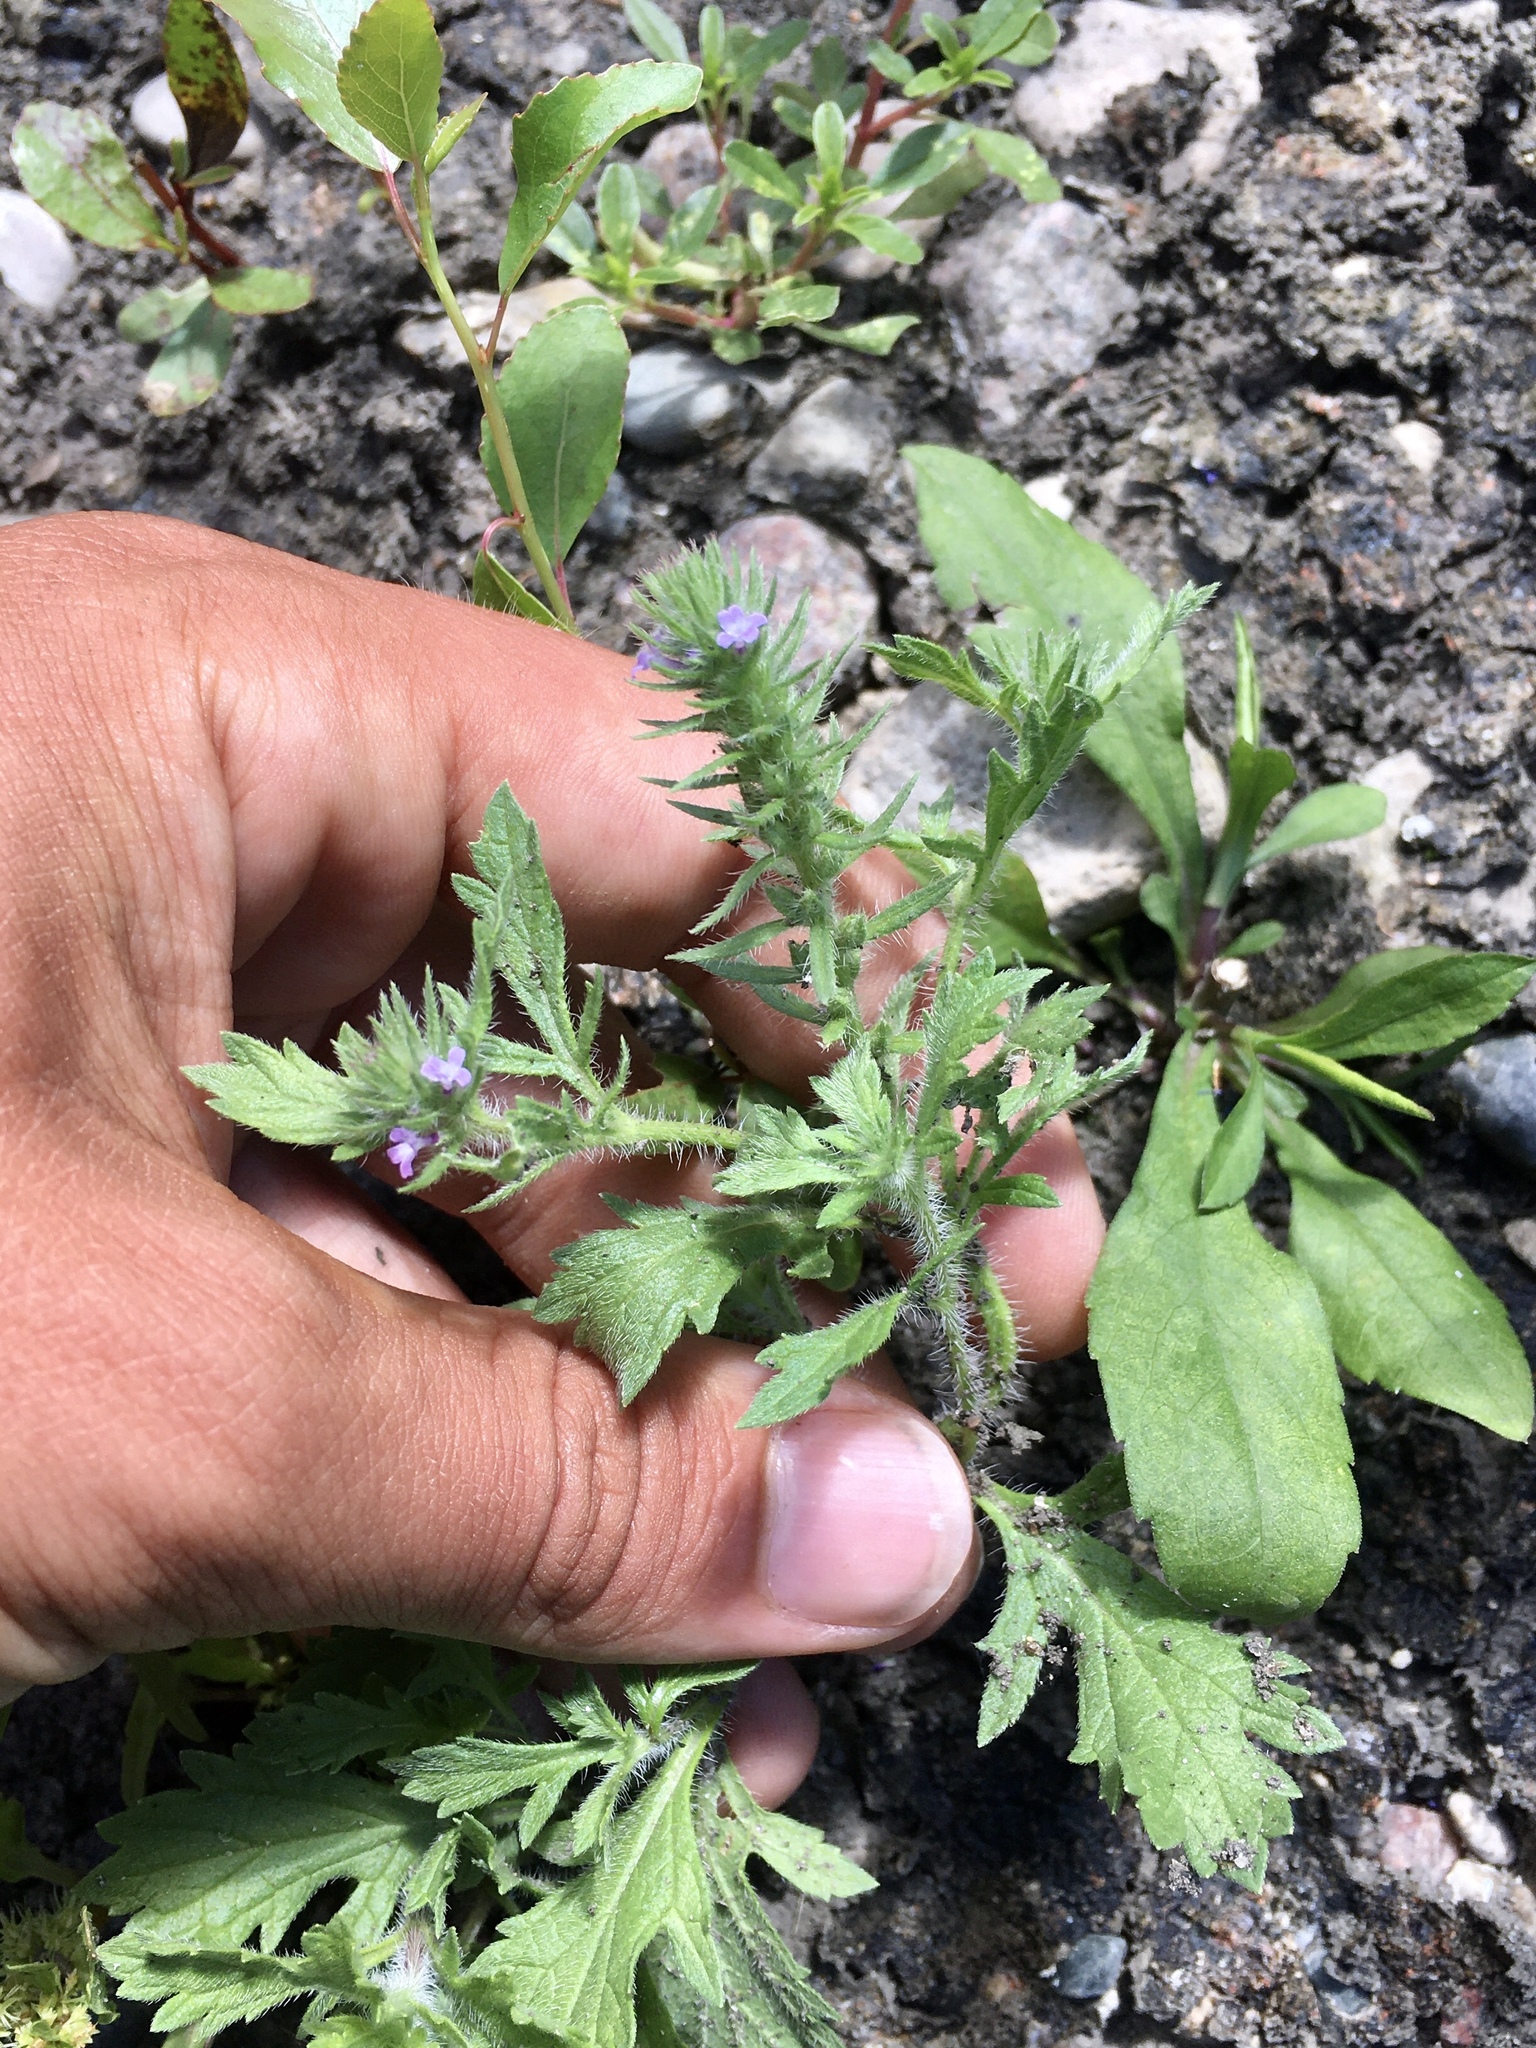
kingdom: Plantae
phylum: Tracheophyta
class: Magnoliopsida
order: Lamiales
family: Verbenaceae
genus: Verbena
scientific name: Verbena bracteata
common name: Bracted vervain
